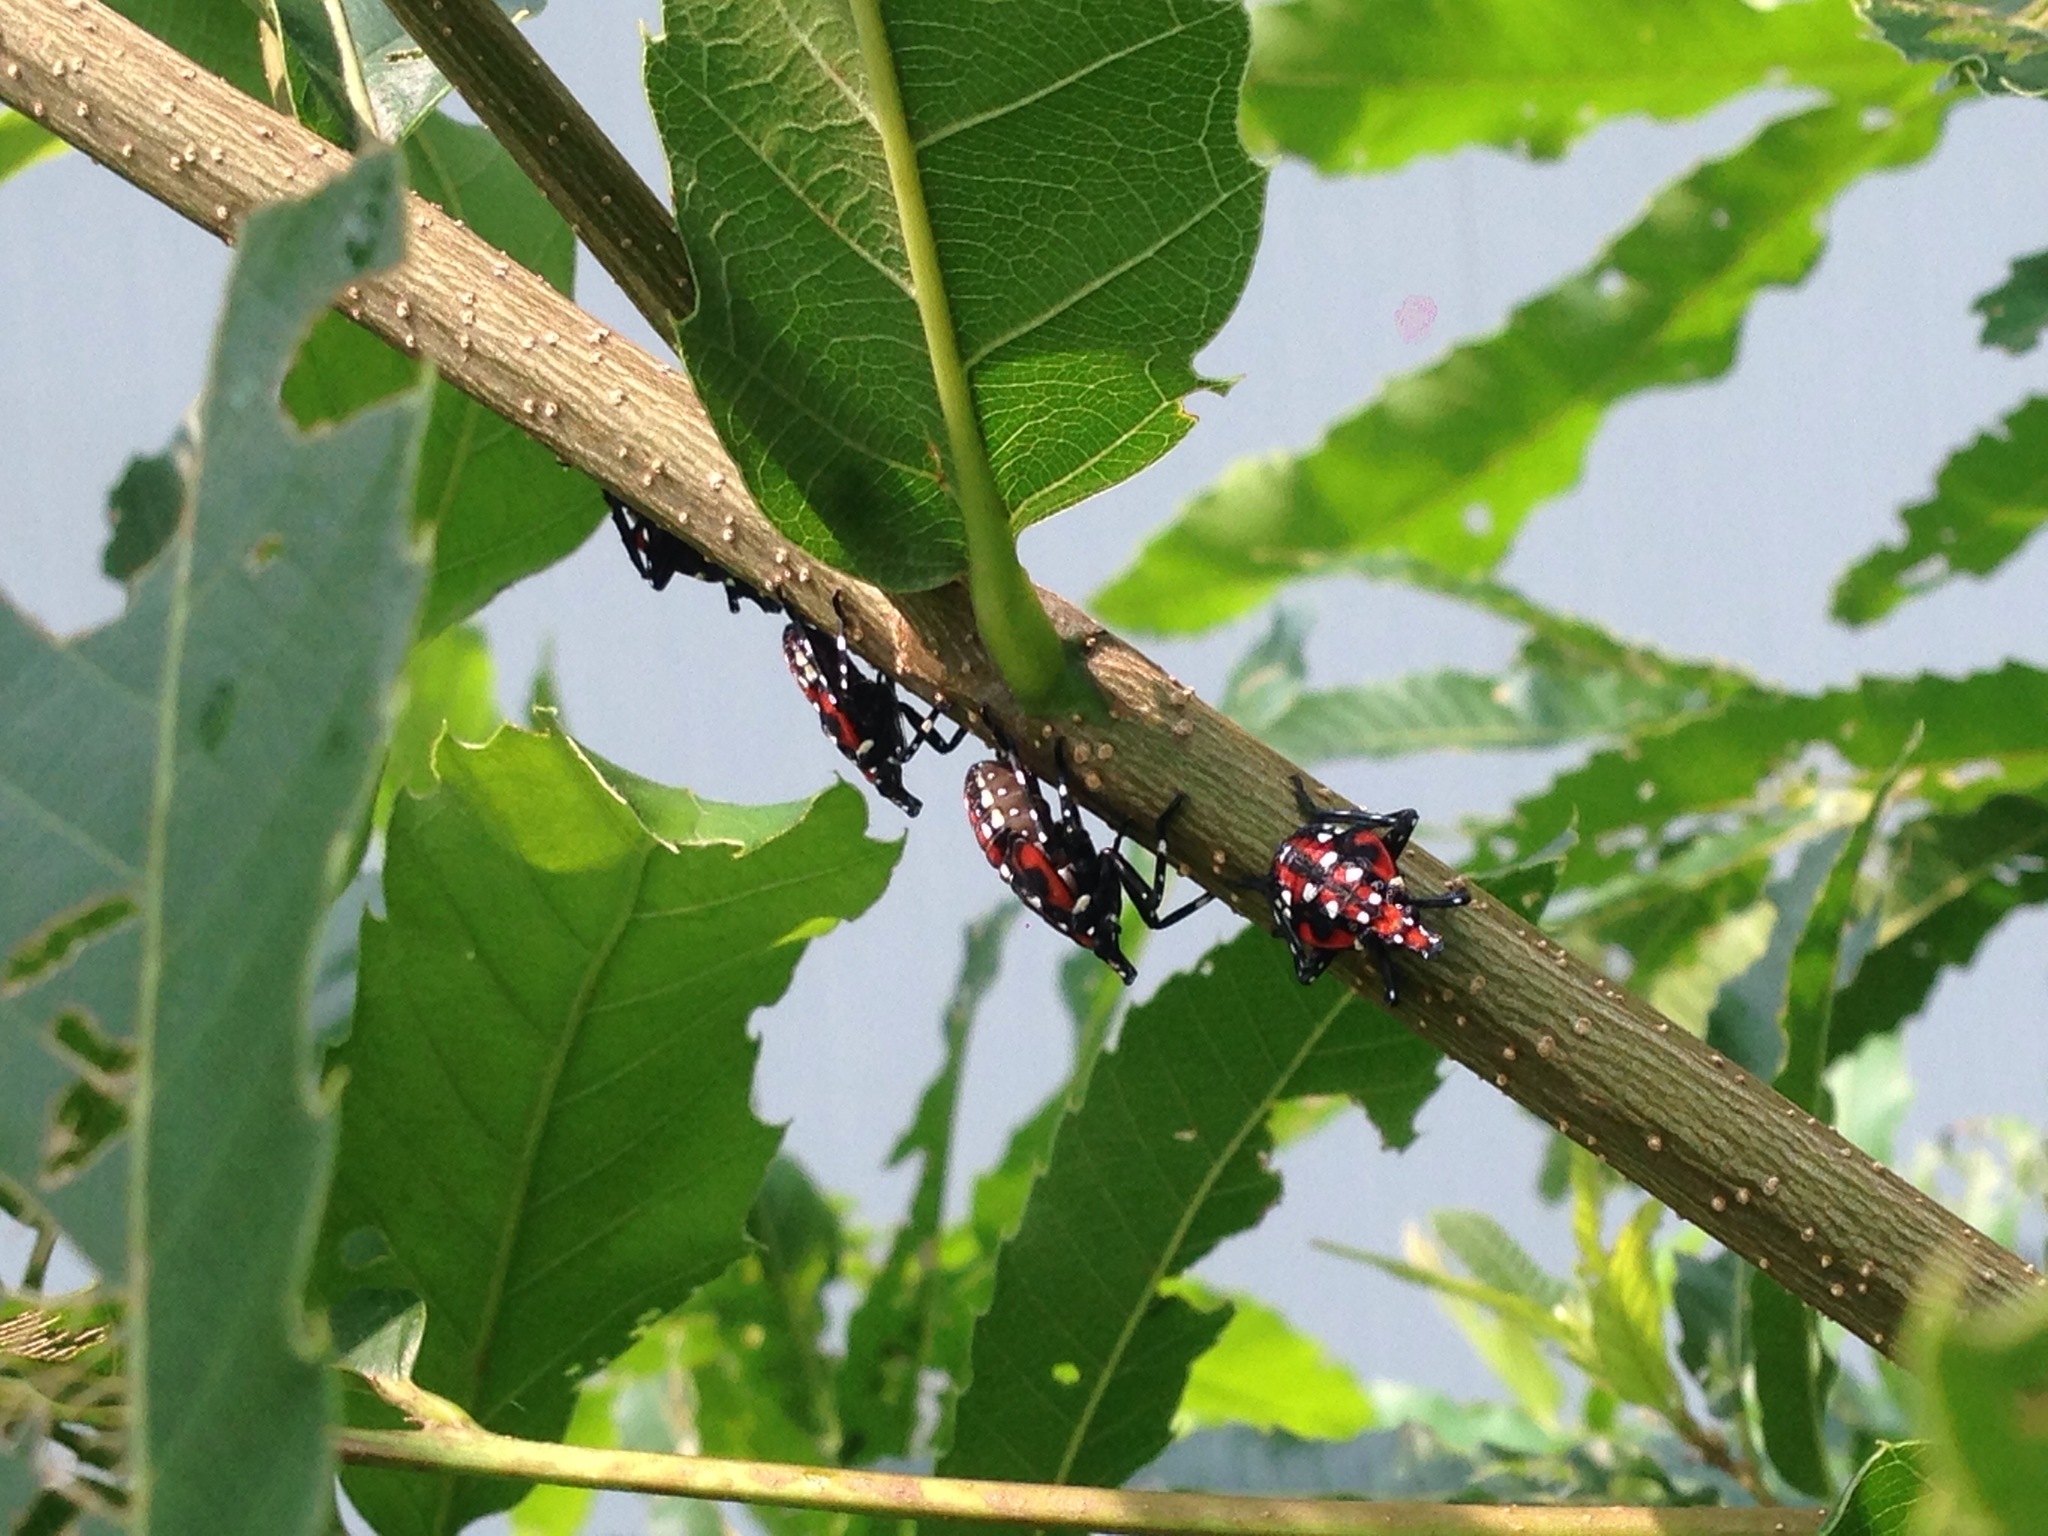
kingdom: Animalia
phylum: Arthropoda
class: Insecta
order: Hemiptera
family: Fulgoridae
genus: Lycorma
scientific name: Lycorma delicatula
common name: Spotted lanternfly
